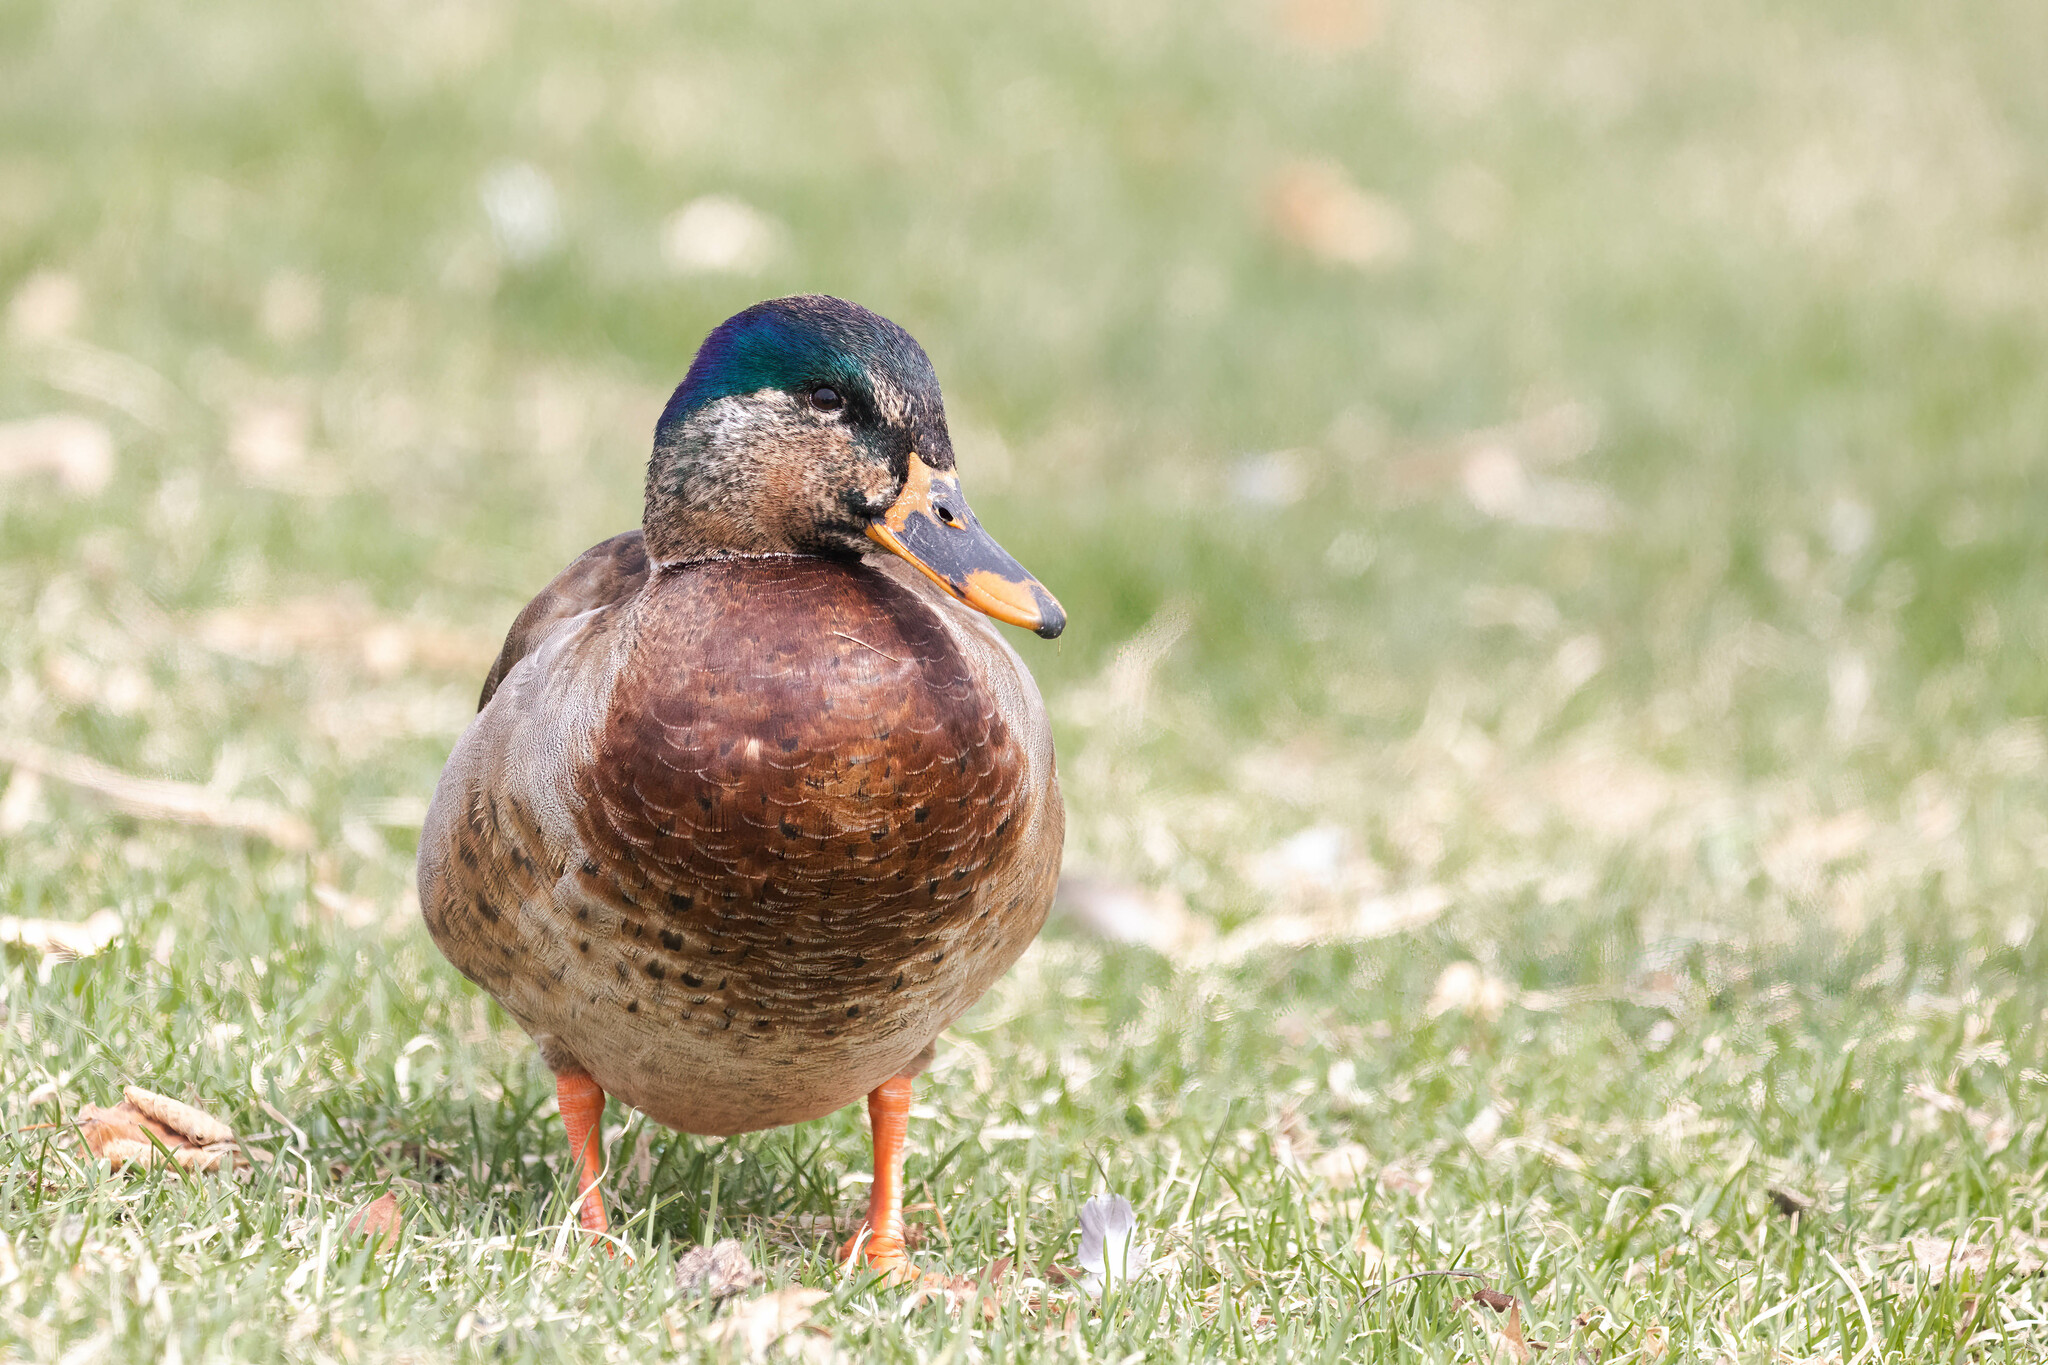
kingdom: Animalia
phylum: Chordata
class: Aves
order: Anseriformes
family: Anatidae
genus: Anas
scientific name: Anas platyrhynchos
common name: Mallard
